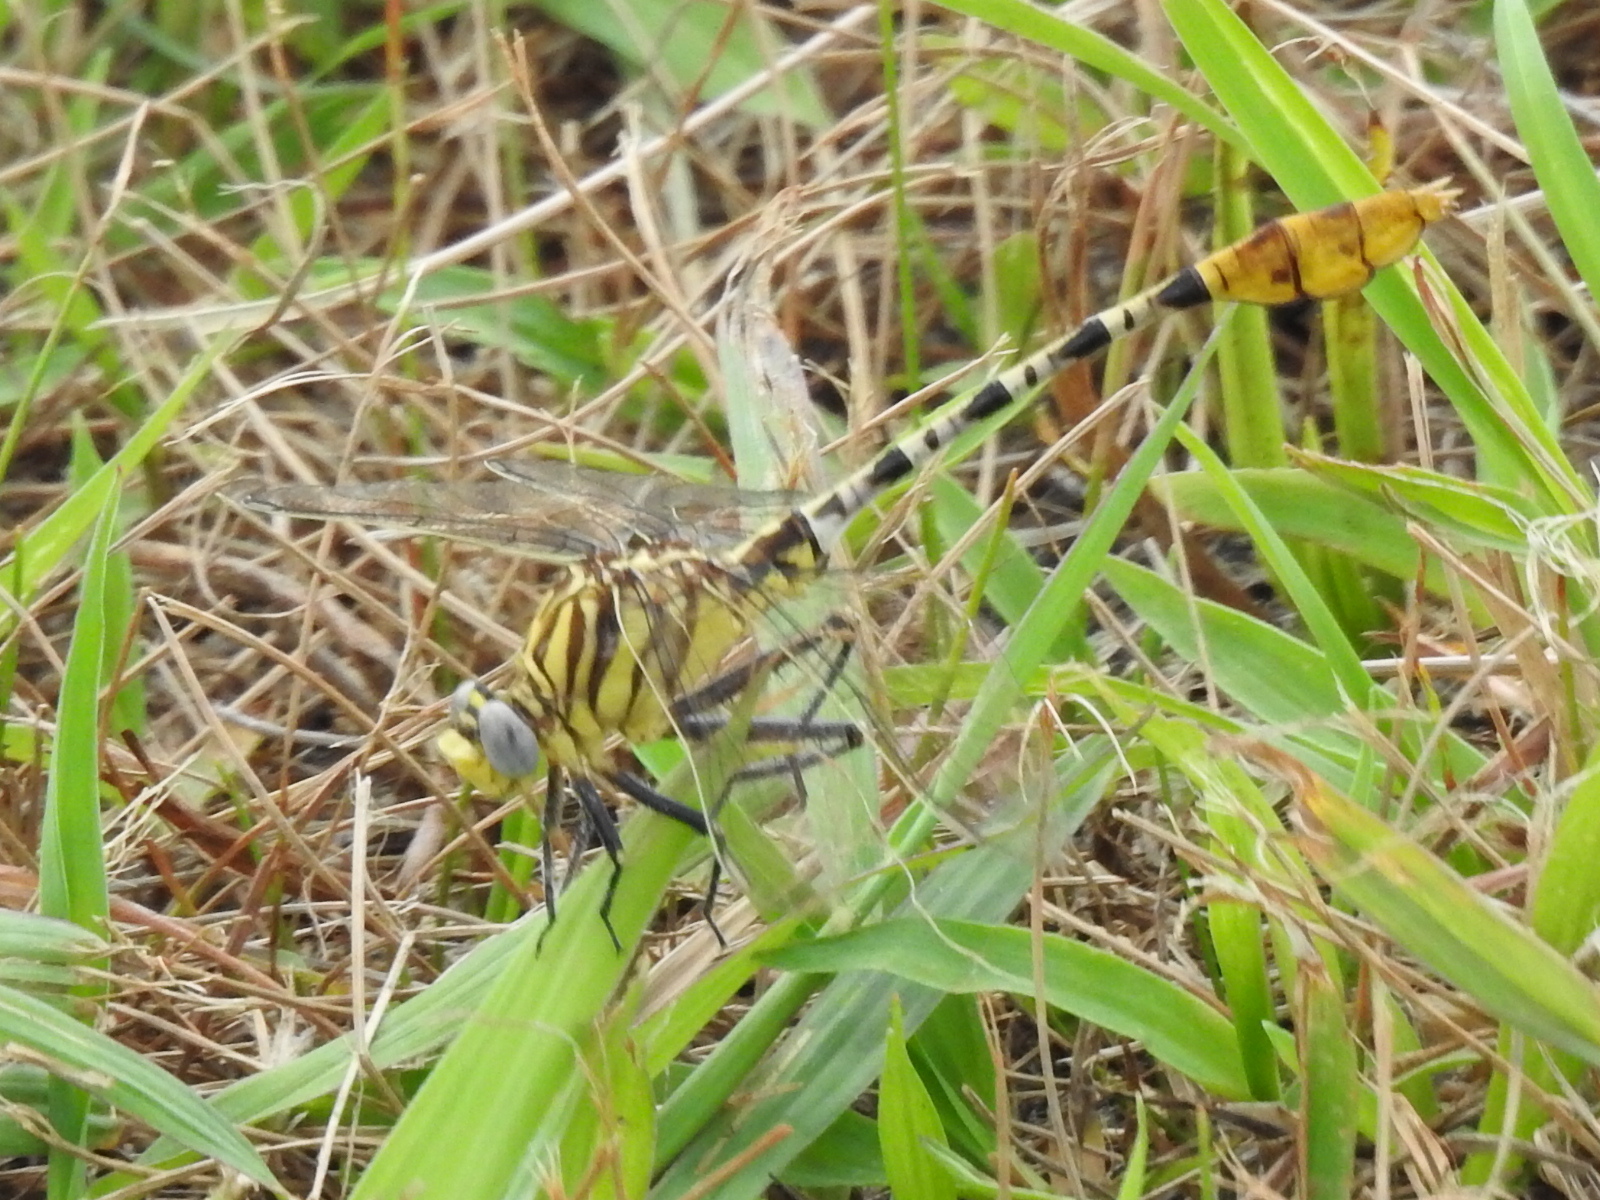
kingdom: Animalia
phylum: Arthropoda
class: Insecta
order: Odonata
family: Gomphidae
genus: Dromogomphus
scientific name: Dromogomphus spoliatus
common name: Flag-tailed spinyleg
